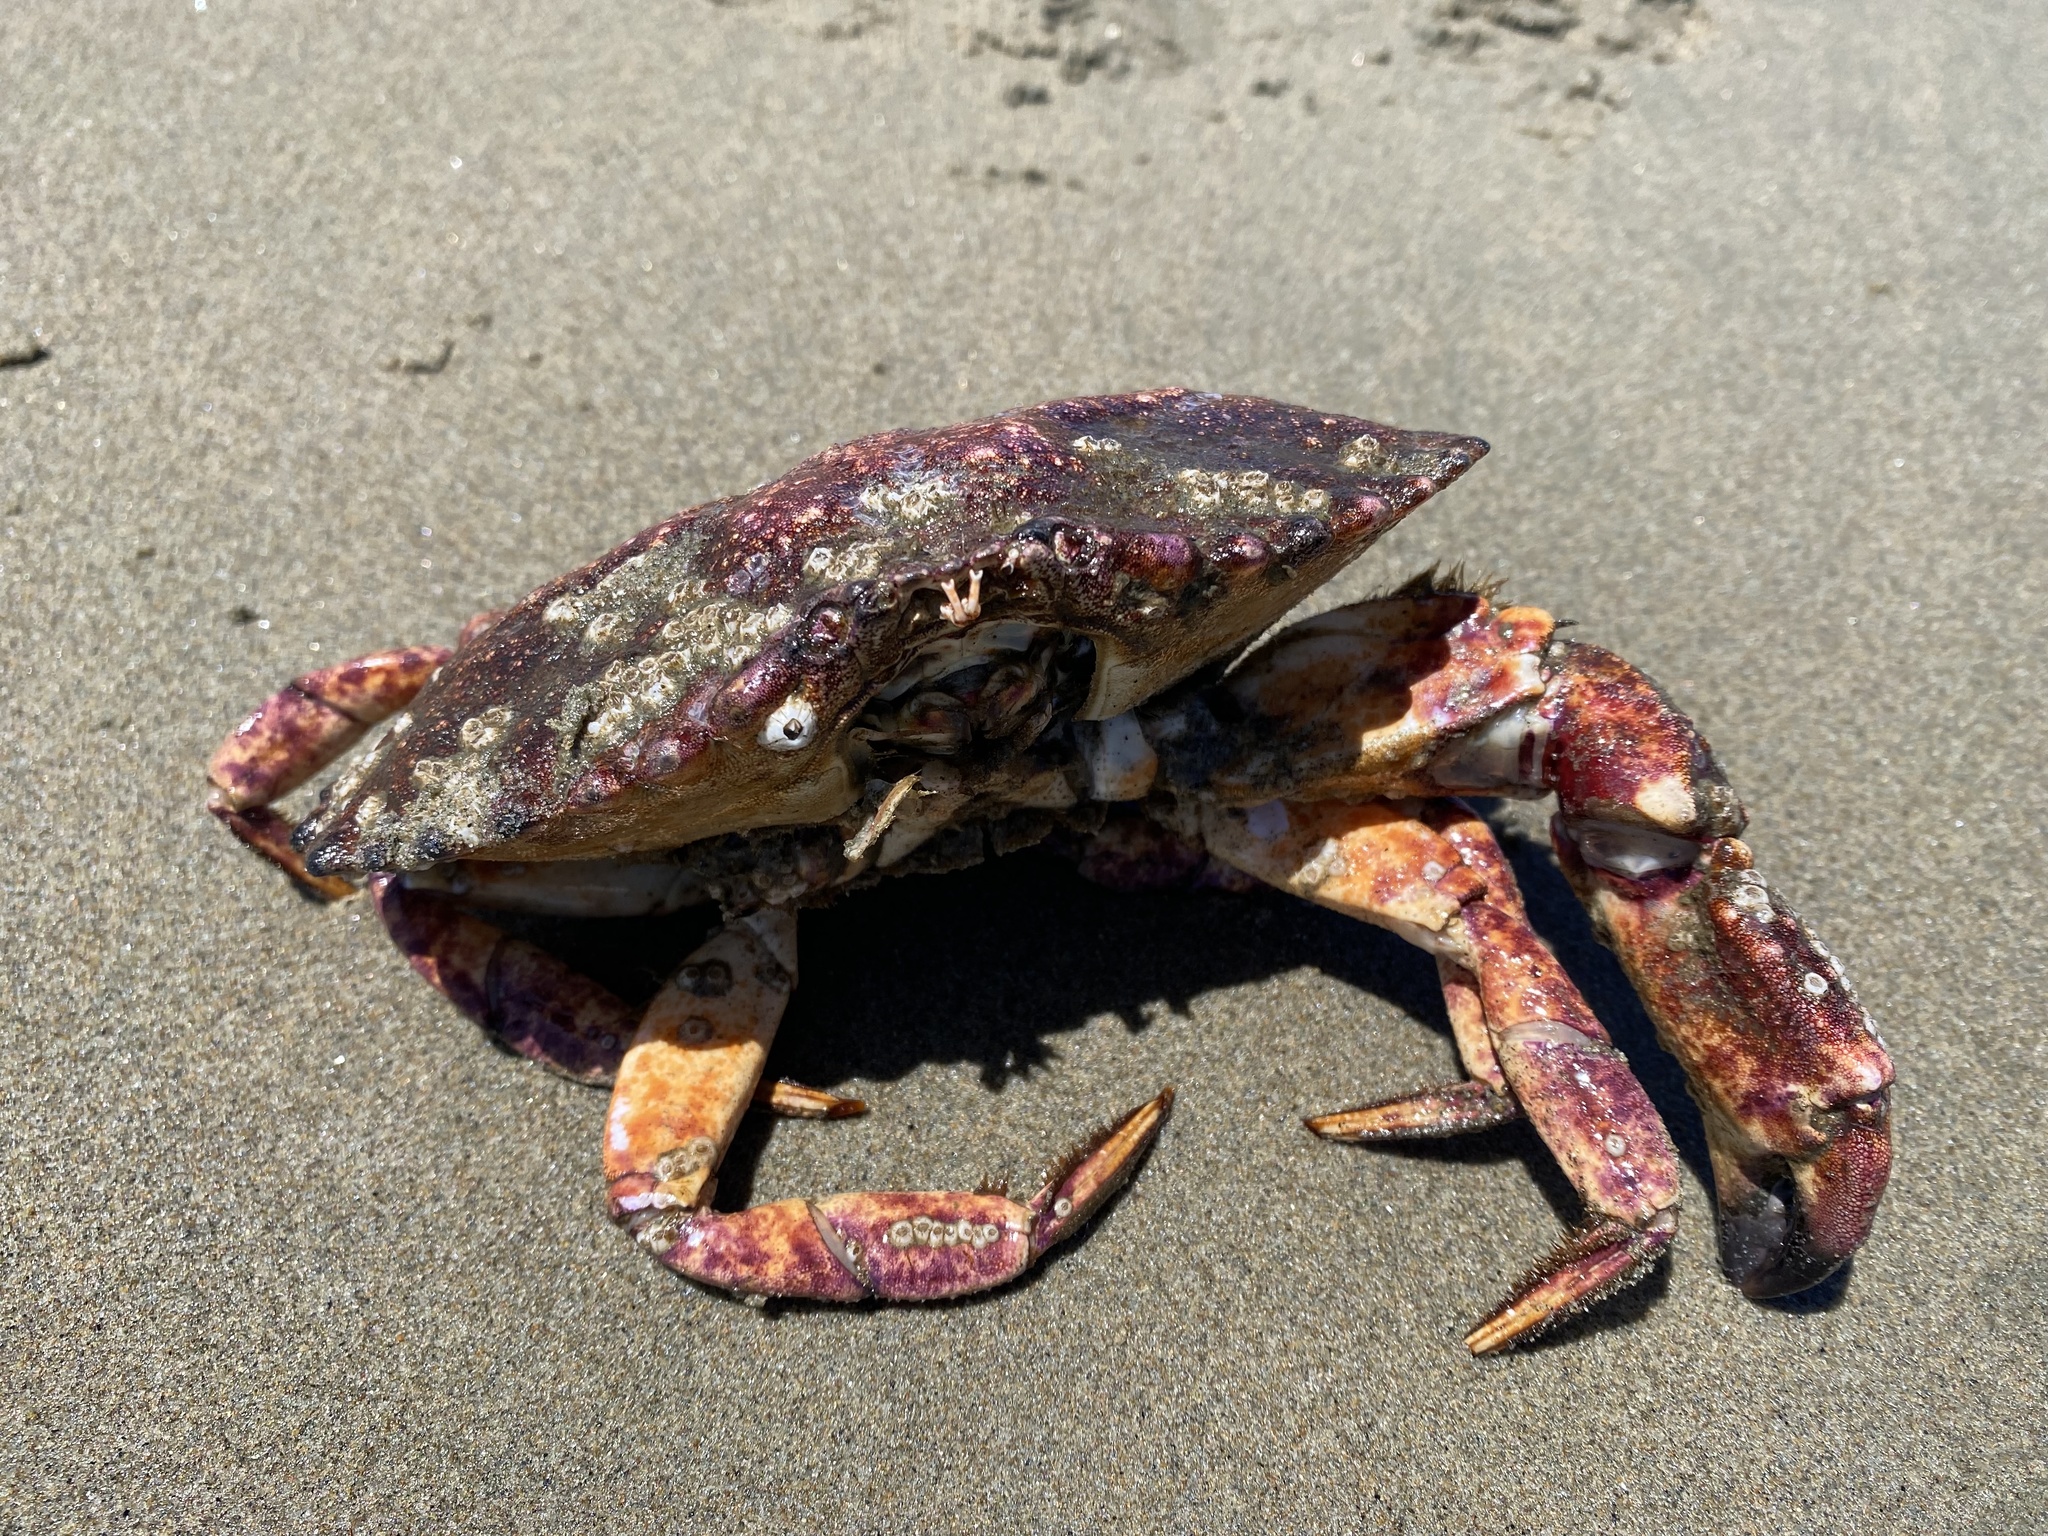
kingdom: Animalia
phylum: Arthropoda
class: Malacostraca
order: Decapoda
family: Cancridae
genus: Cancer
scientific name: Cancer productus
